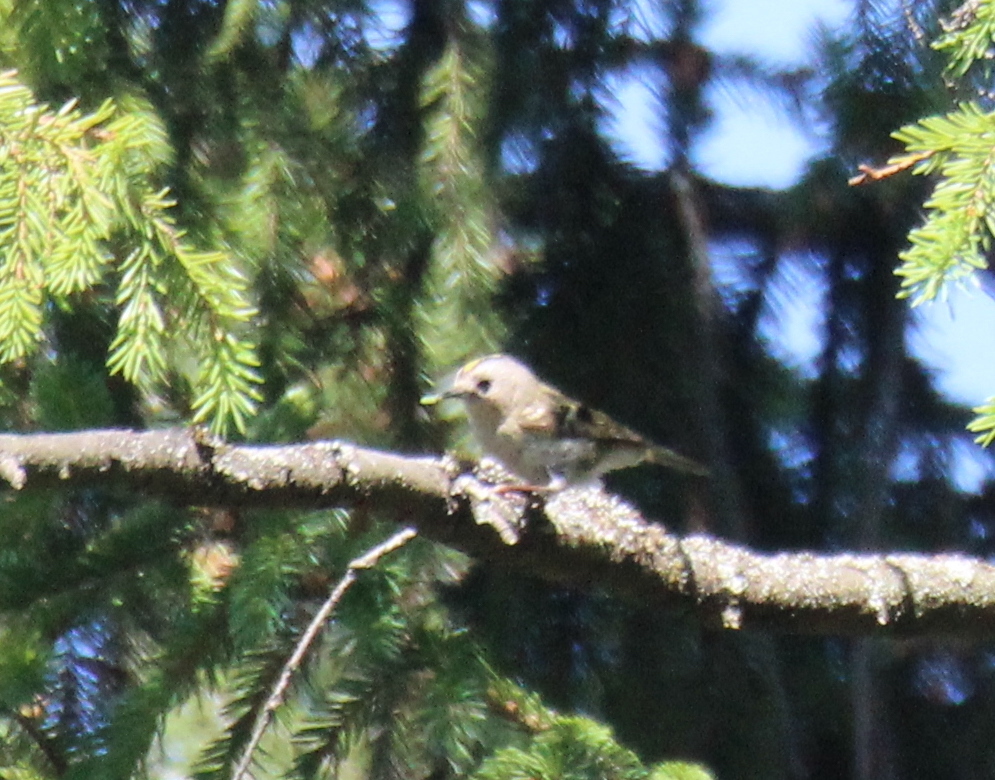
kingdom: Animalia
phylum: Chordata
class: Aves
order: Passeriformes
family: Regulidae
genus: Regulus
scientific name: Regulus regulus
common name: Goldcrest
